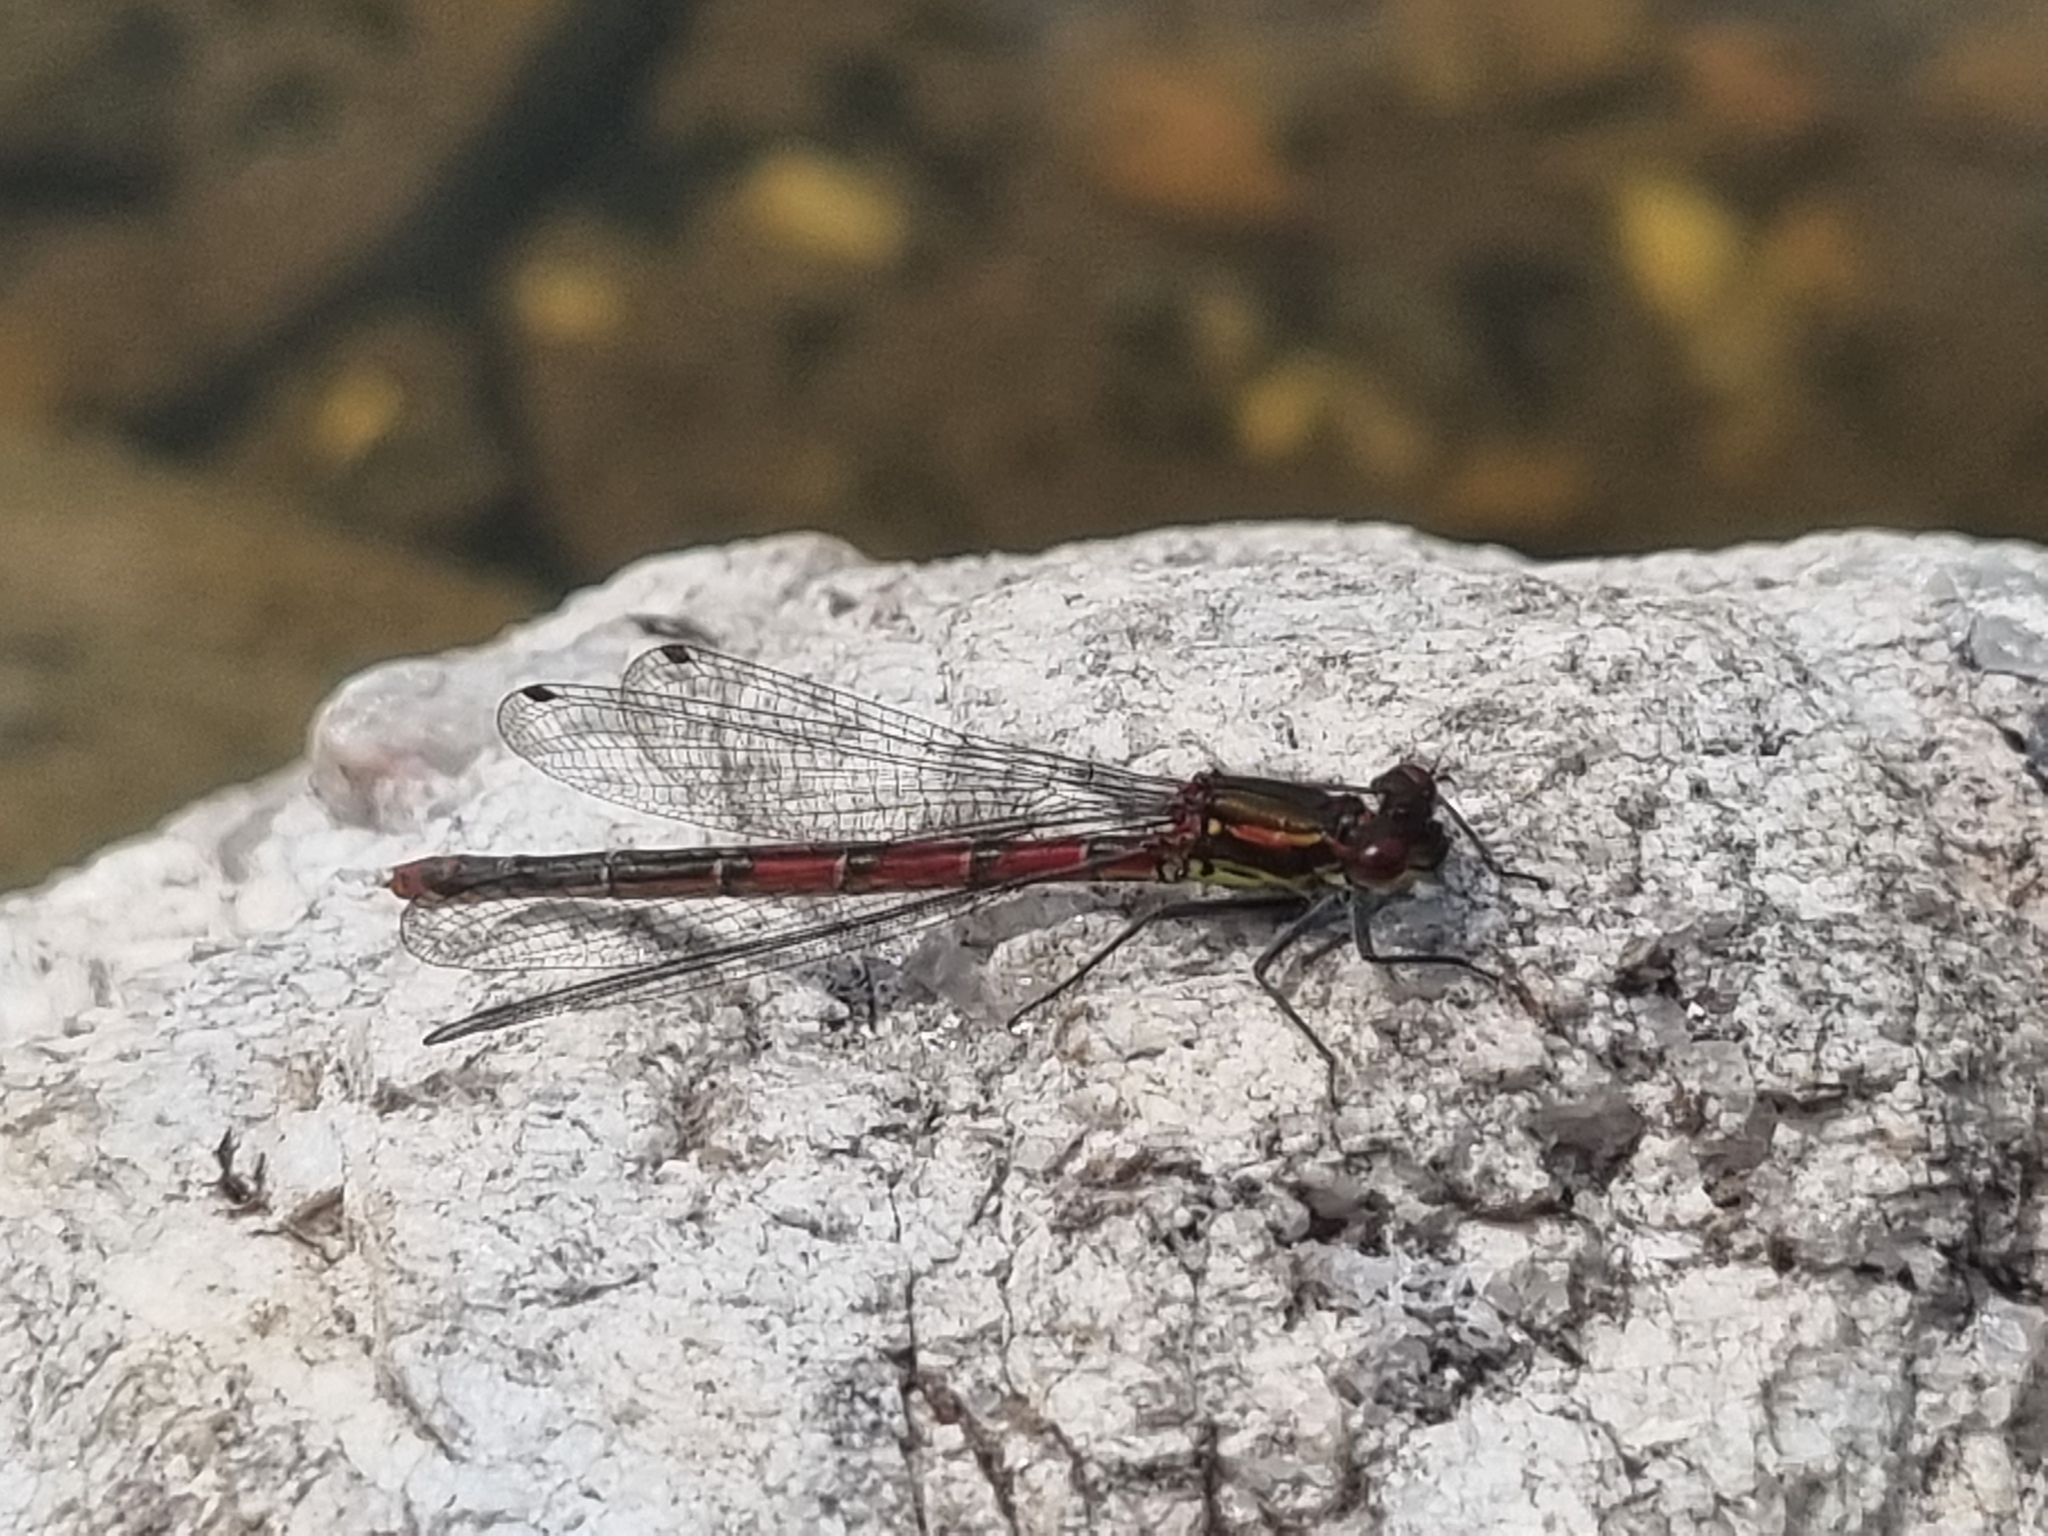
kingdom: Animalia
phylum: Arthropoda
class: Insecta
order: Odonata
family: Coenagrionidae
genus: Pyrrhosoma
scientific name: Pyrrhosoma nymphula
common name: Large red damsel
